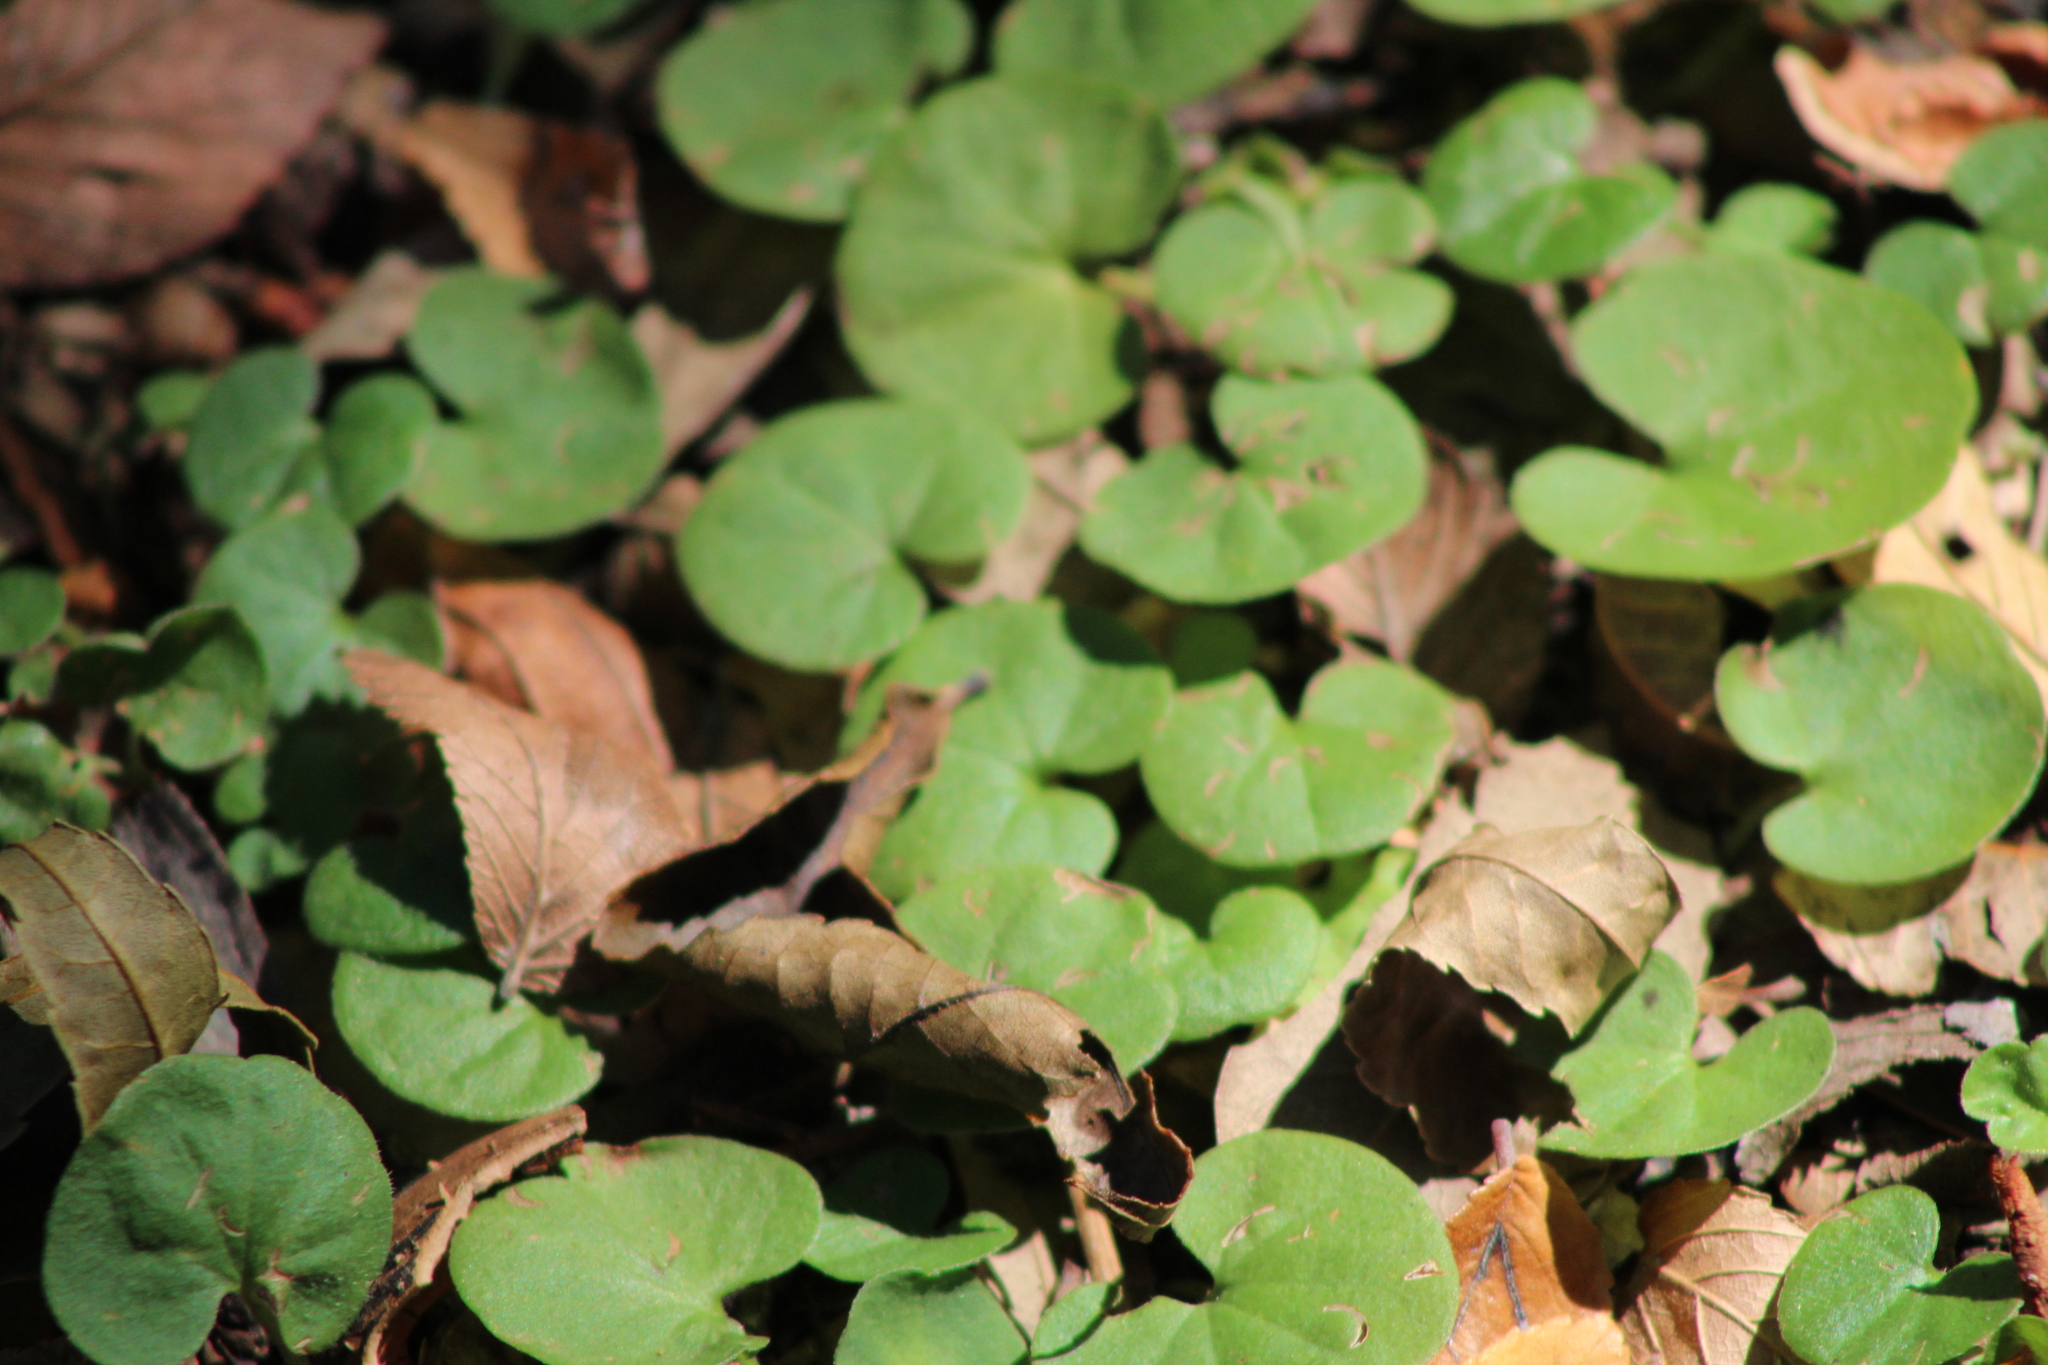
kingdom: Plantae
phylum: Tracheophyta
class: Magnoliopsida
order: Solanales
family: Convolvulaceae
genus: Dichondra
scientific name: Dichondra carolinensis
